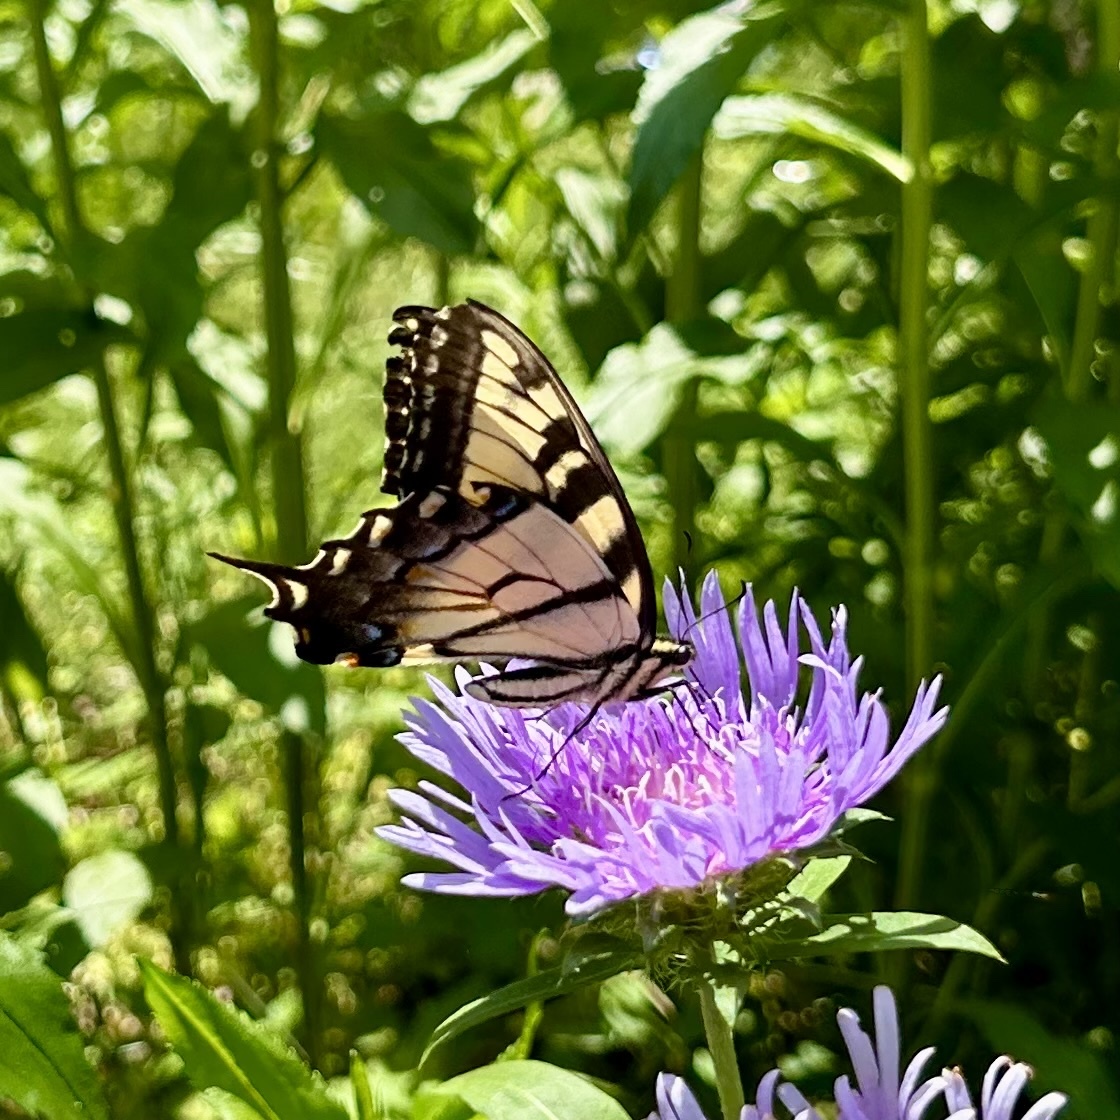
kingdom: Animalia
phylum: Arthropoda
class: Insecta
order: Lepidoptera
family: Papilionidae
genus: Papilio
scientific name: Papilio glaucus
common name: Tiger swallowtail
